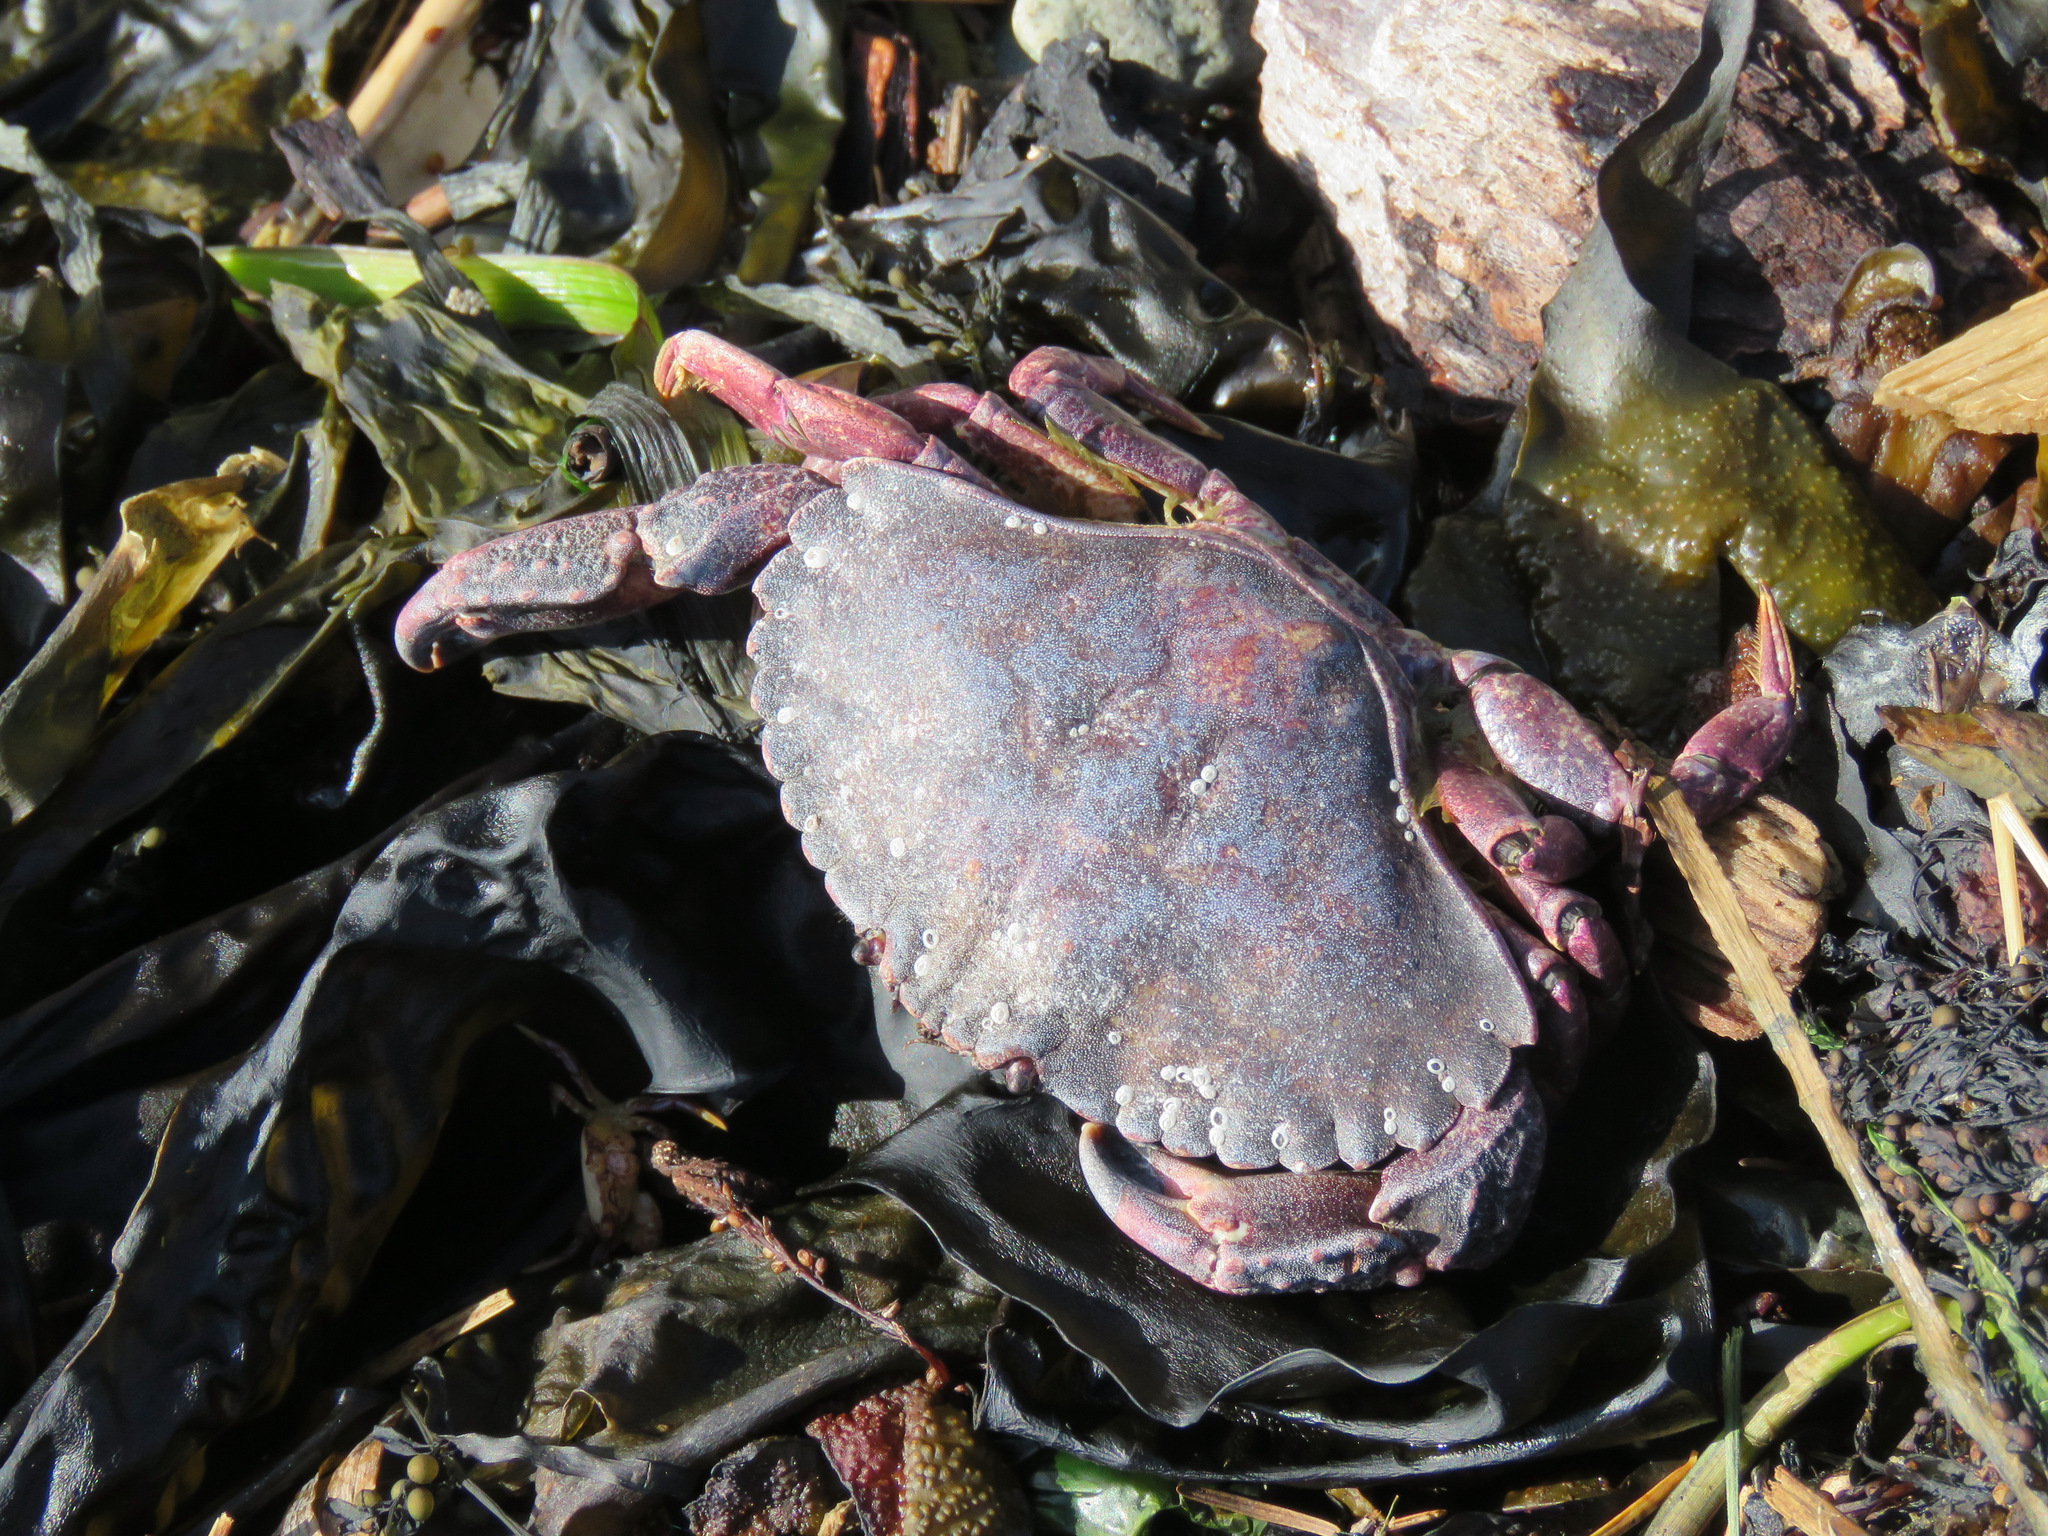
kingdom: Animalia
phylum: Arthropoda
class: Malacostraca
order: Decapoda
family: Cancridae
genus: Cancer
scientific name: Cancer productus
